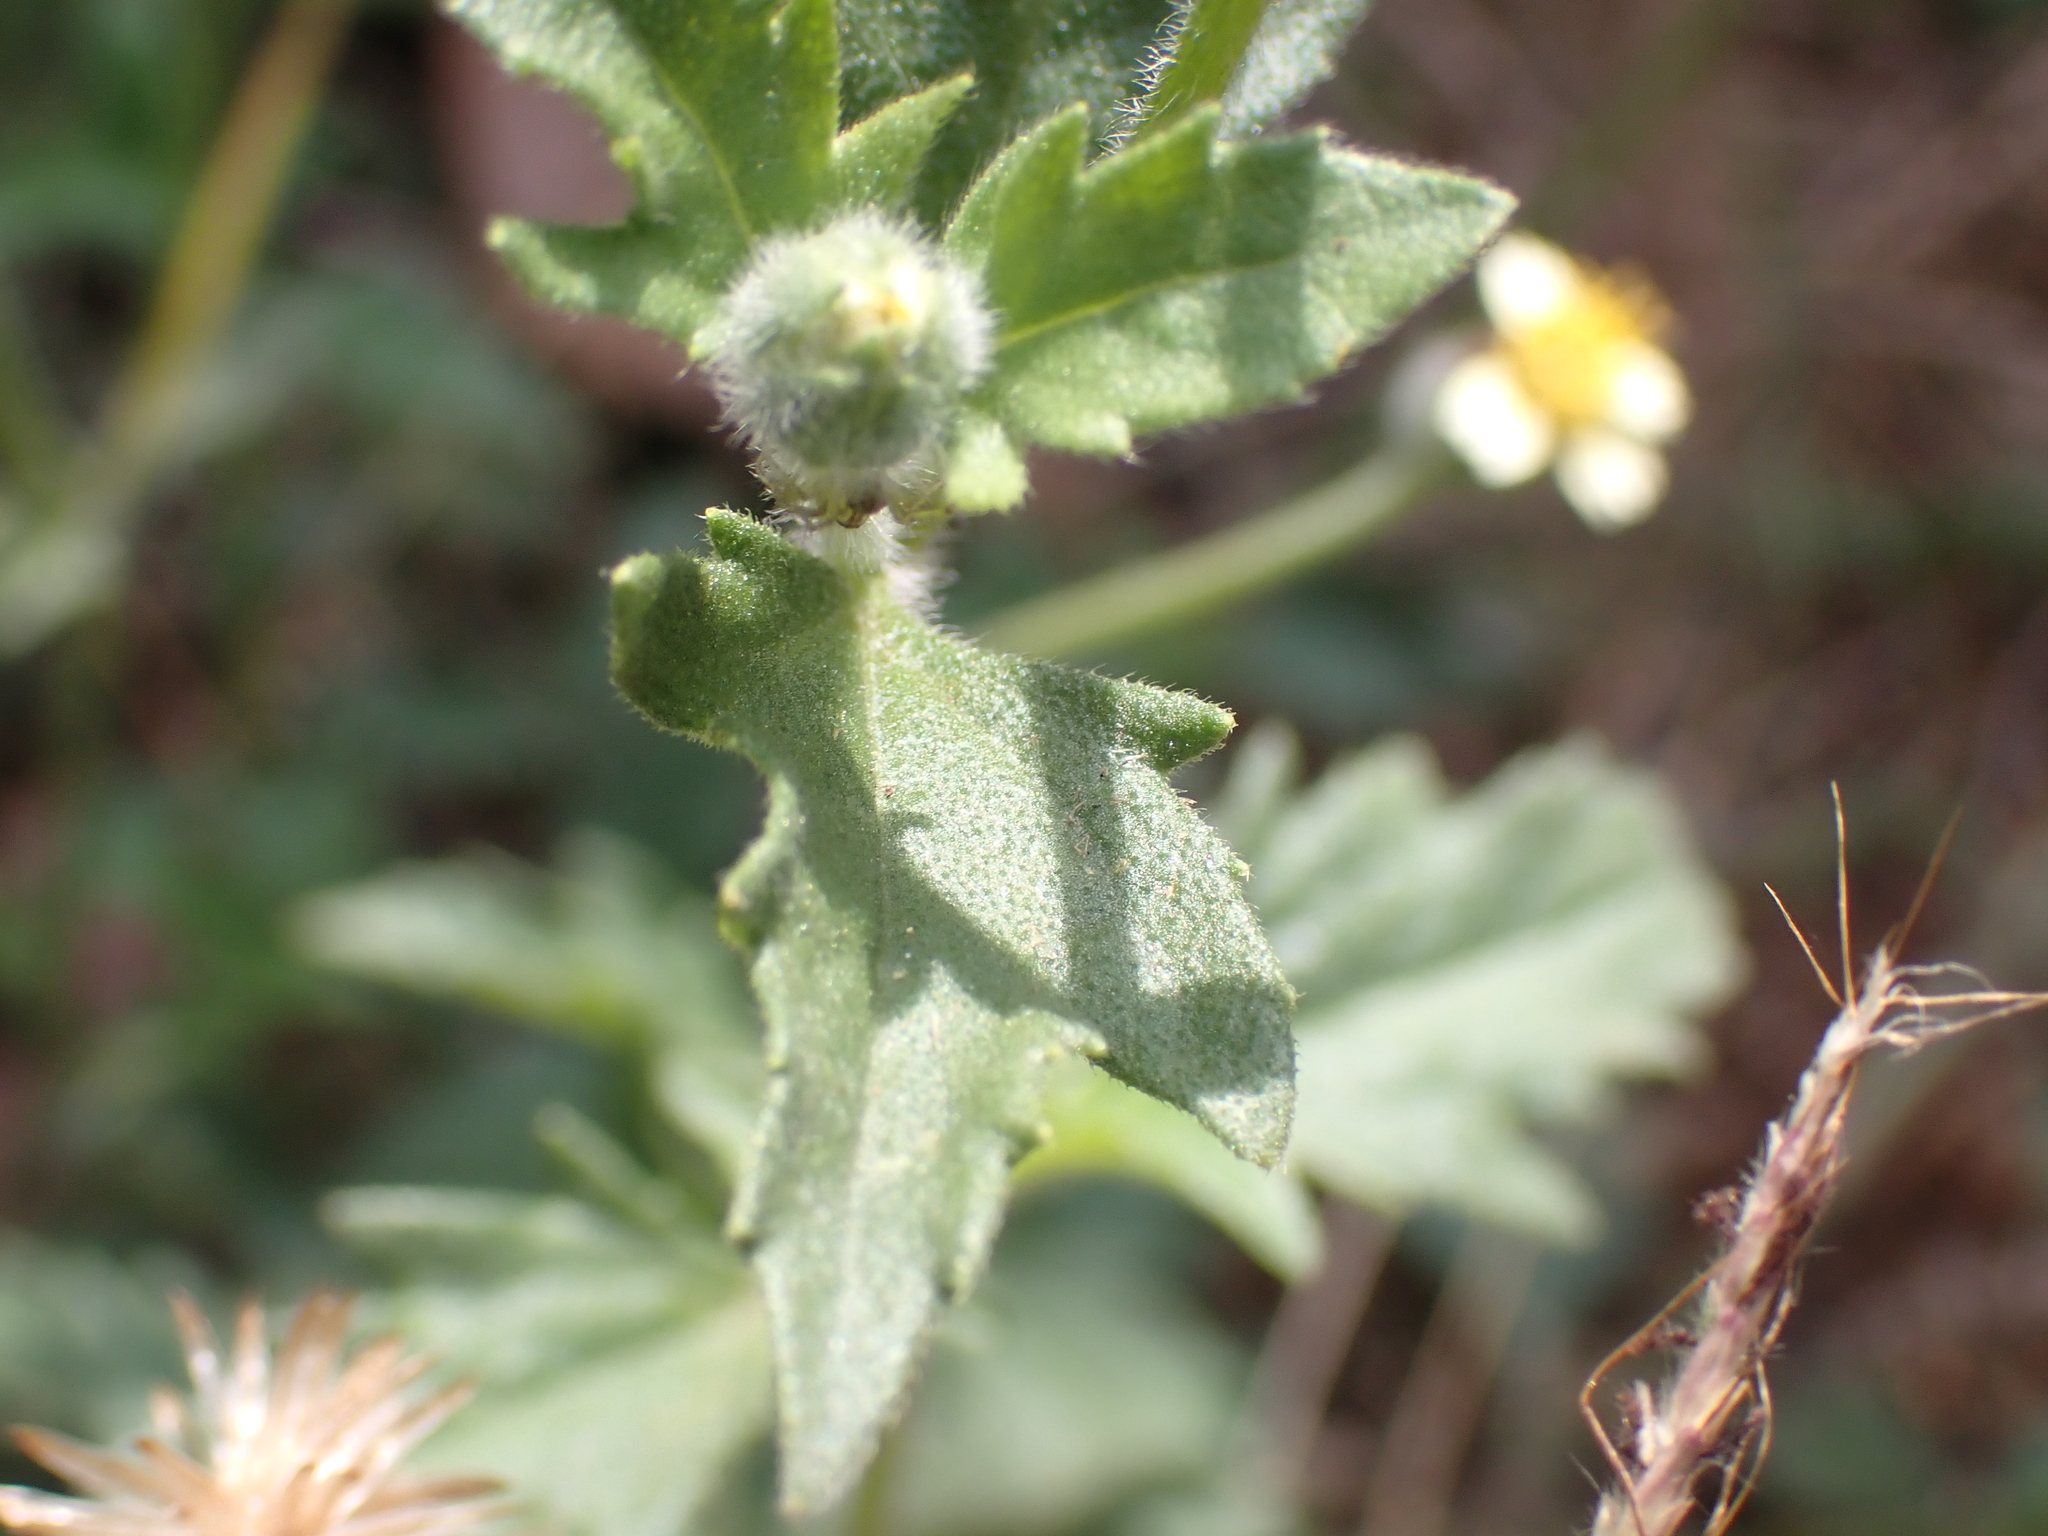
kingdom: Plantae
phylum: Tracheophyta
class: Magnoliopsida
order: Asterales
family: Asteraceae
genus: Tridax
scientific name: Tridax procumbens
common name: Coatbuttons
